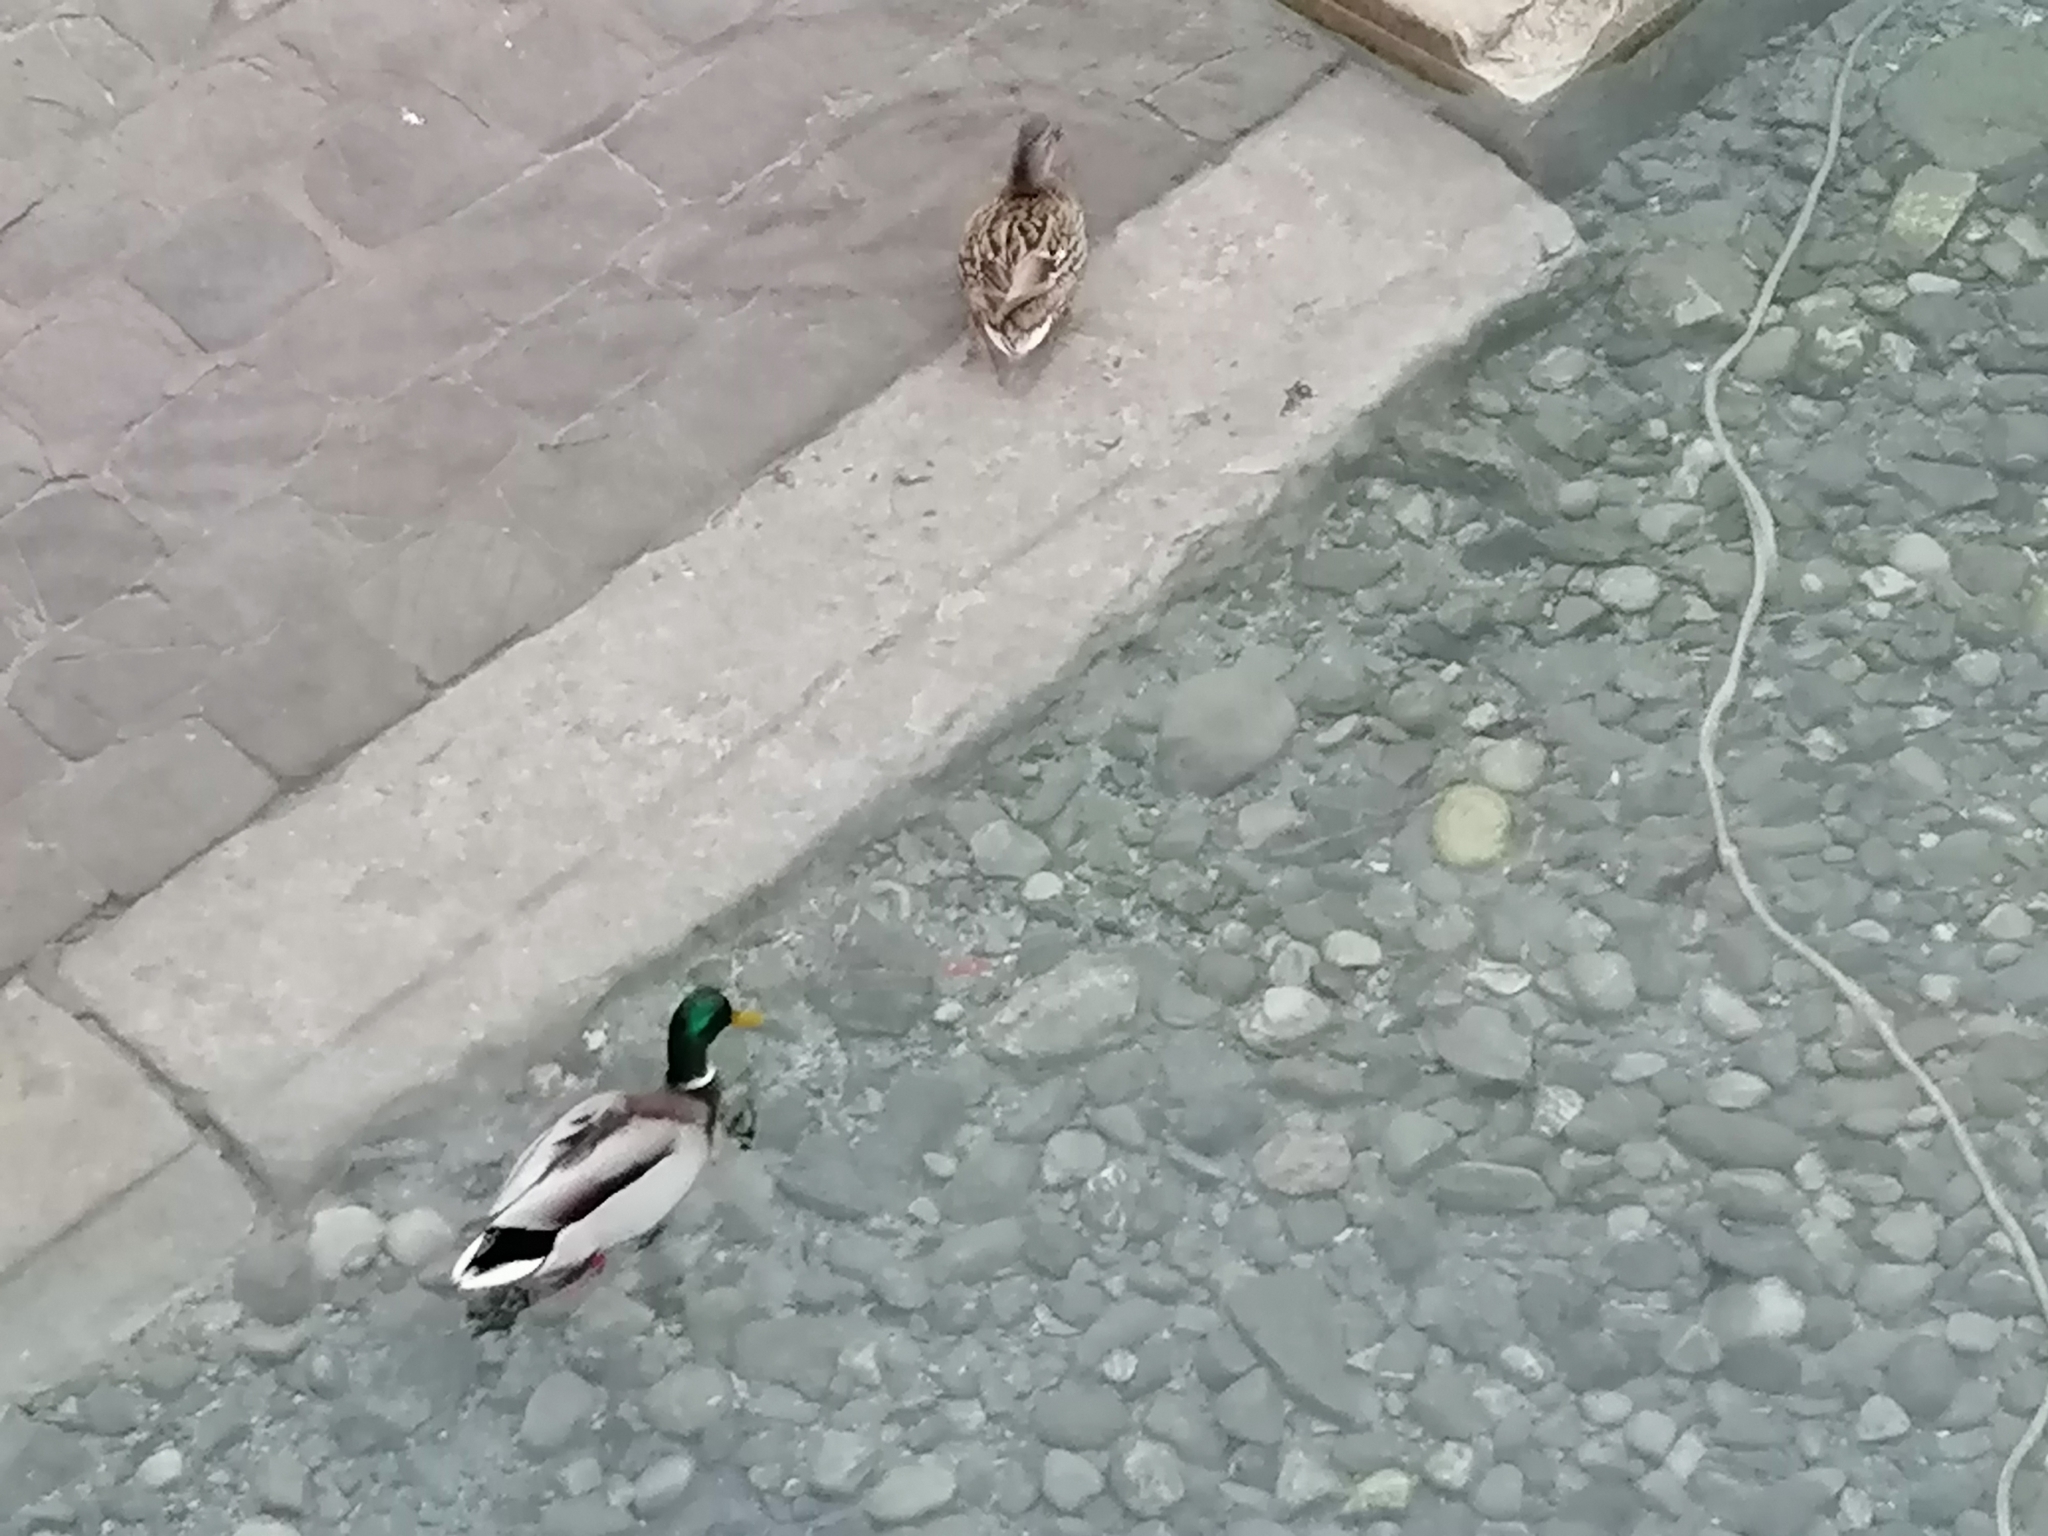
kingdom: Animalia
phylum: Chordata
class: Aves
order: Anseriformes
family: Anatidae
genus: Anas
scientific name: Anas platyrhynchos
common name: Mallard
